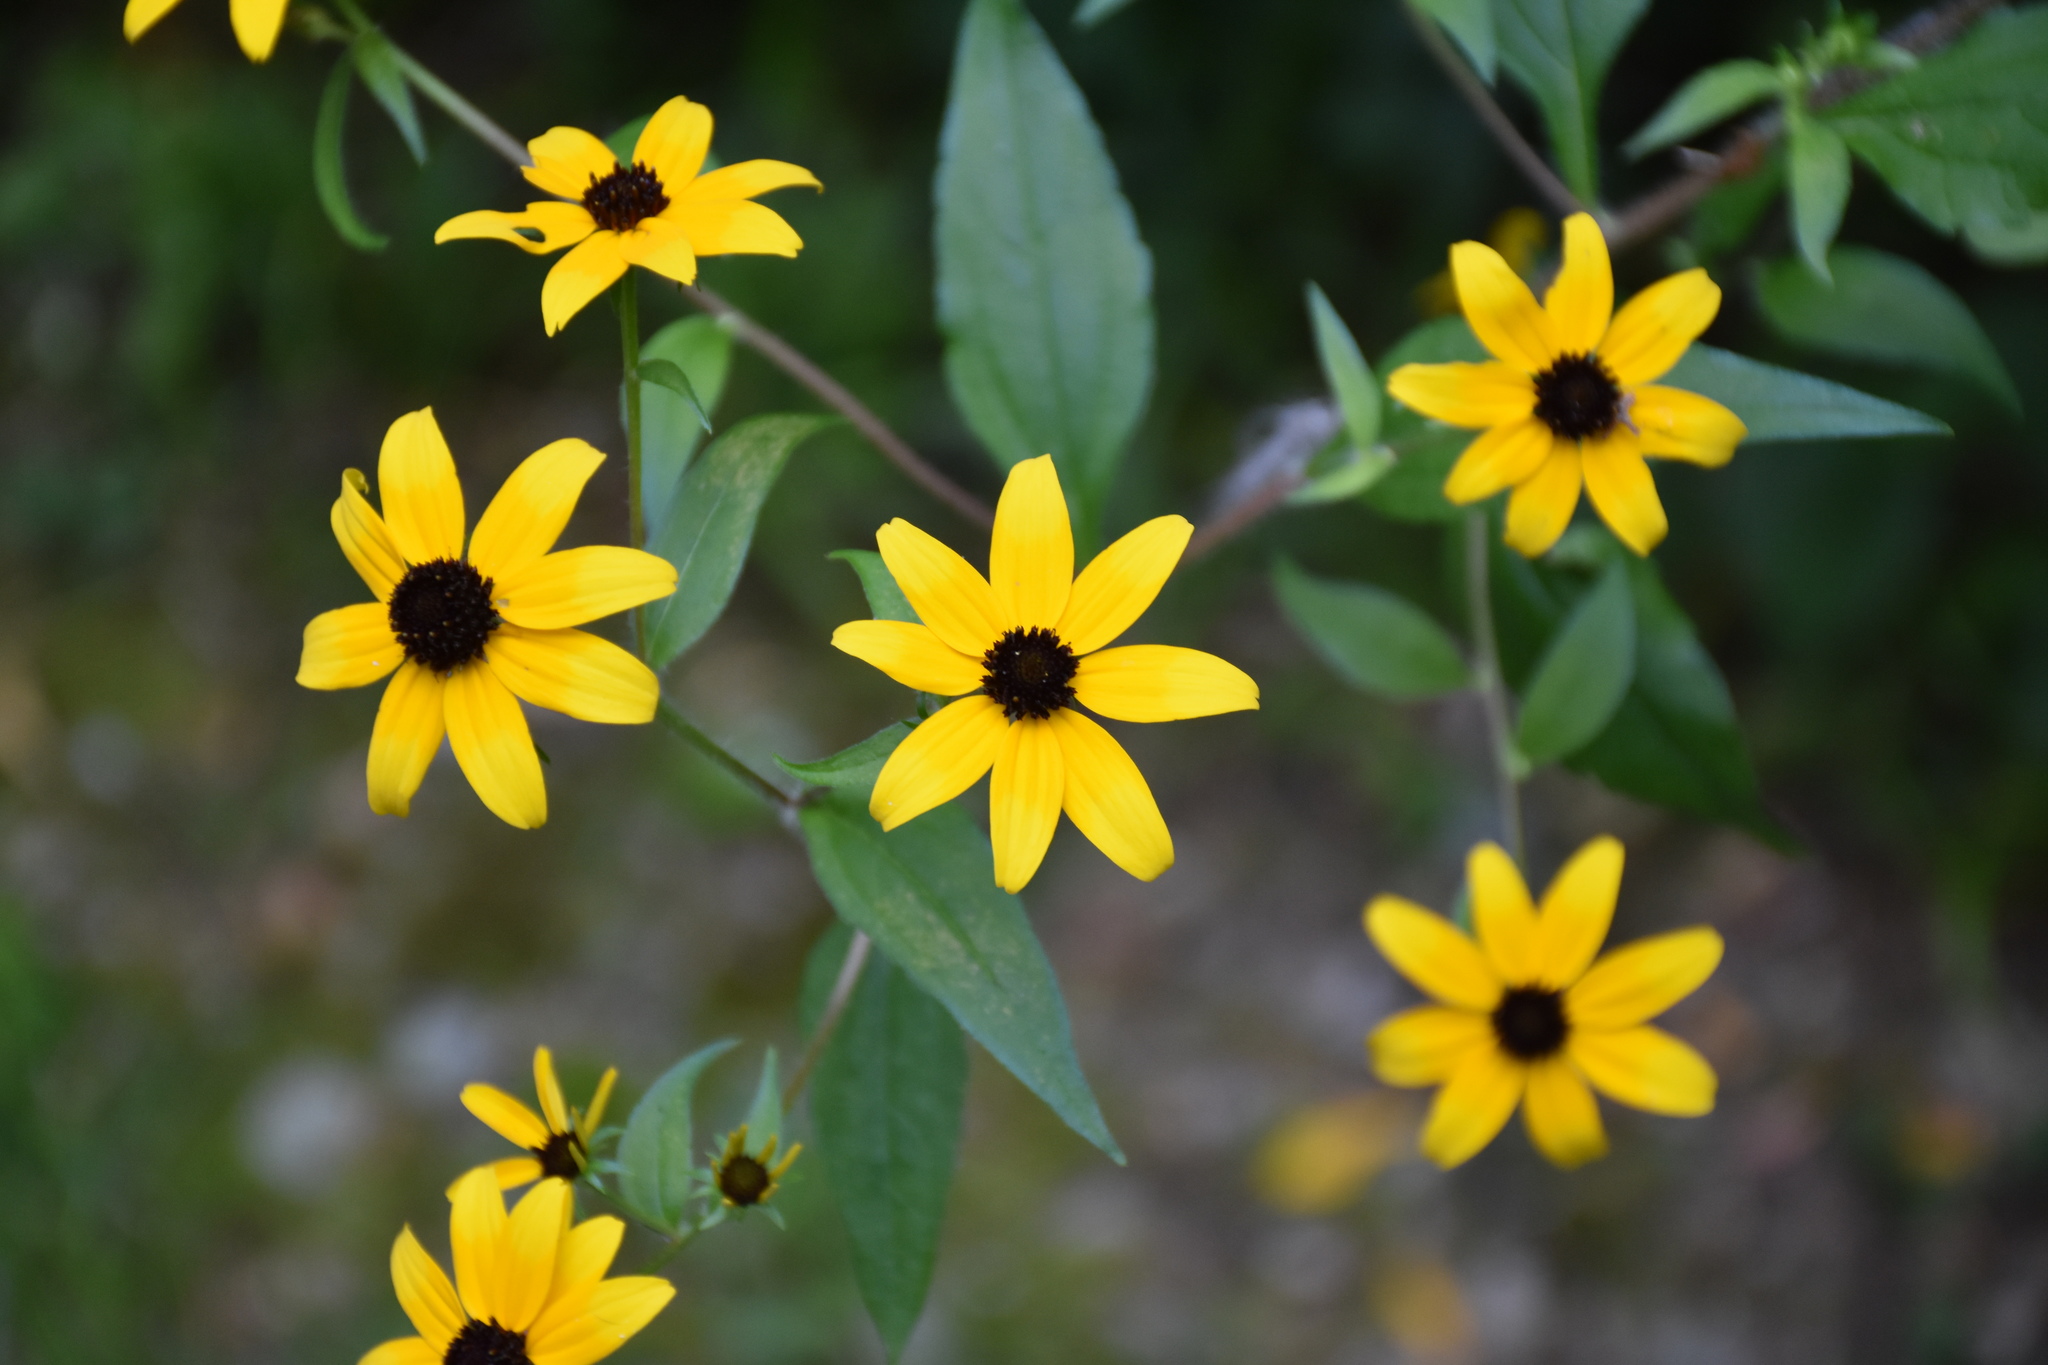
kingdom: Plantae
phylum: Tracheophyta
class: Magnoliopsida
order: Asterales
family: Asteraceae
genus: Rudbeckia
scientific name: Rudbeckia triloba
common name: Thin-leaved coneflower
